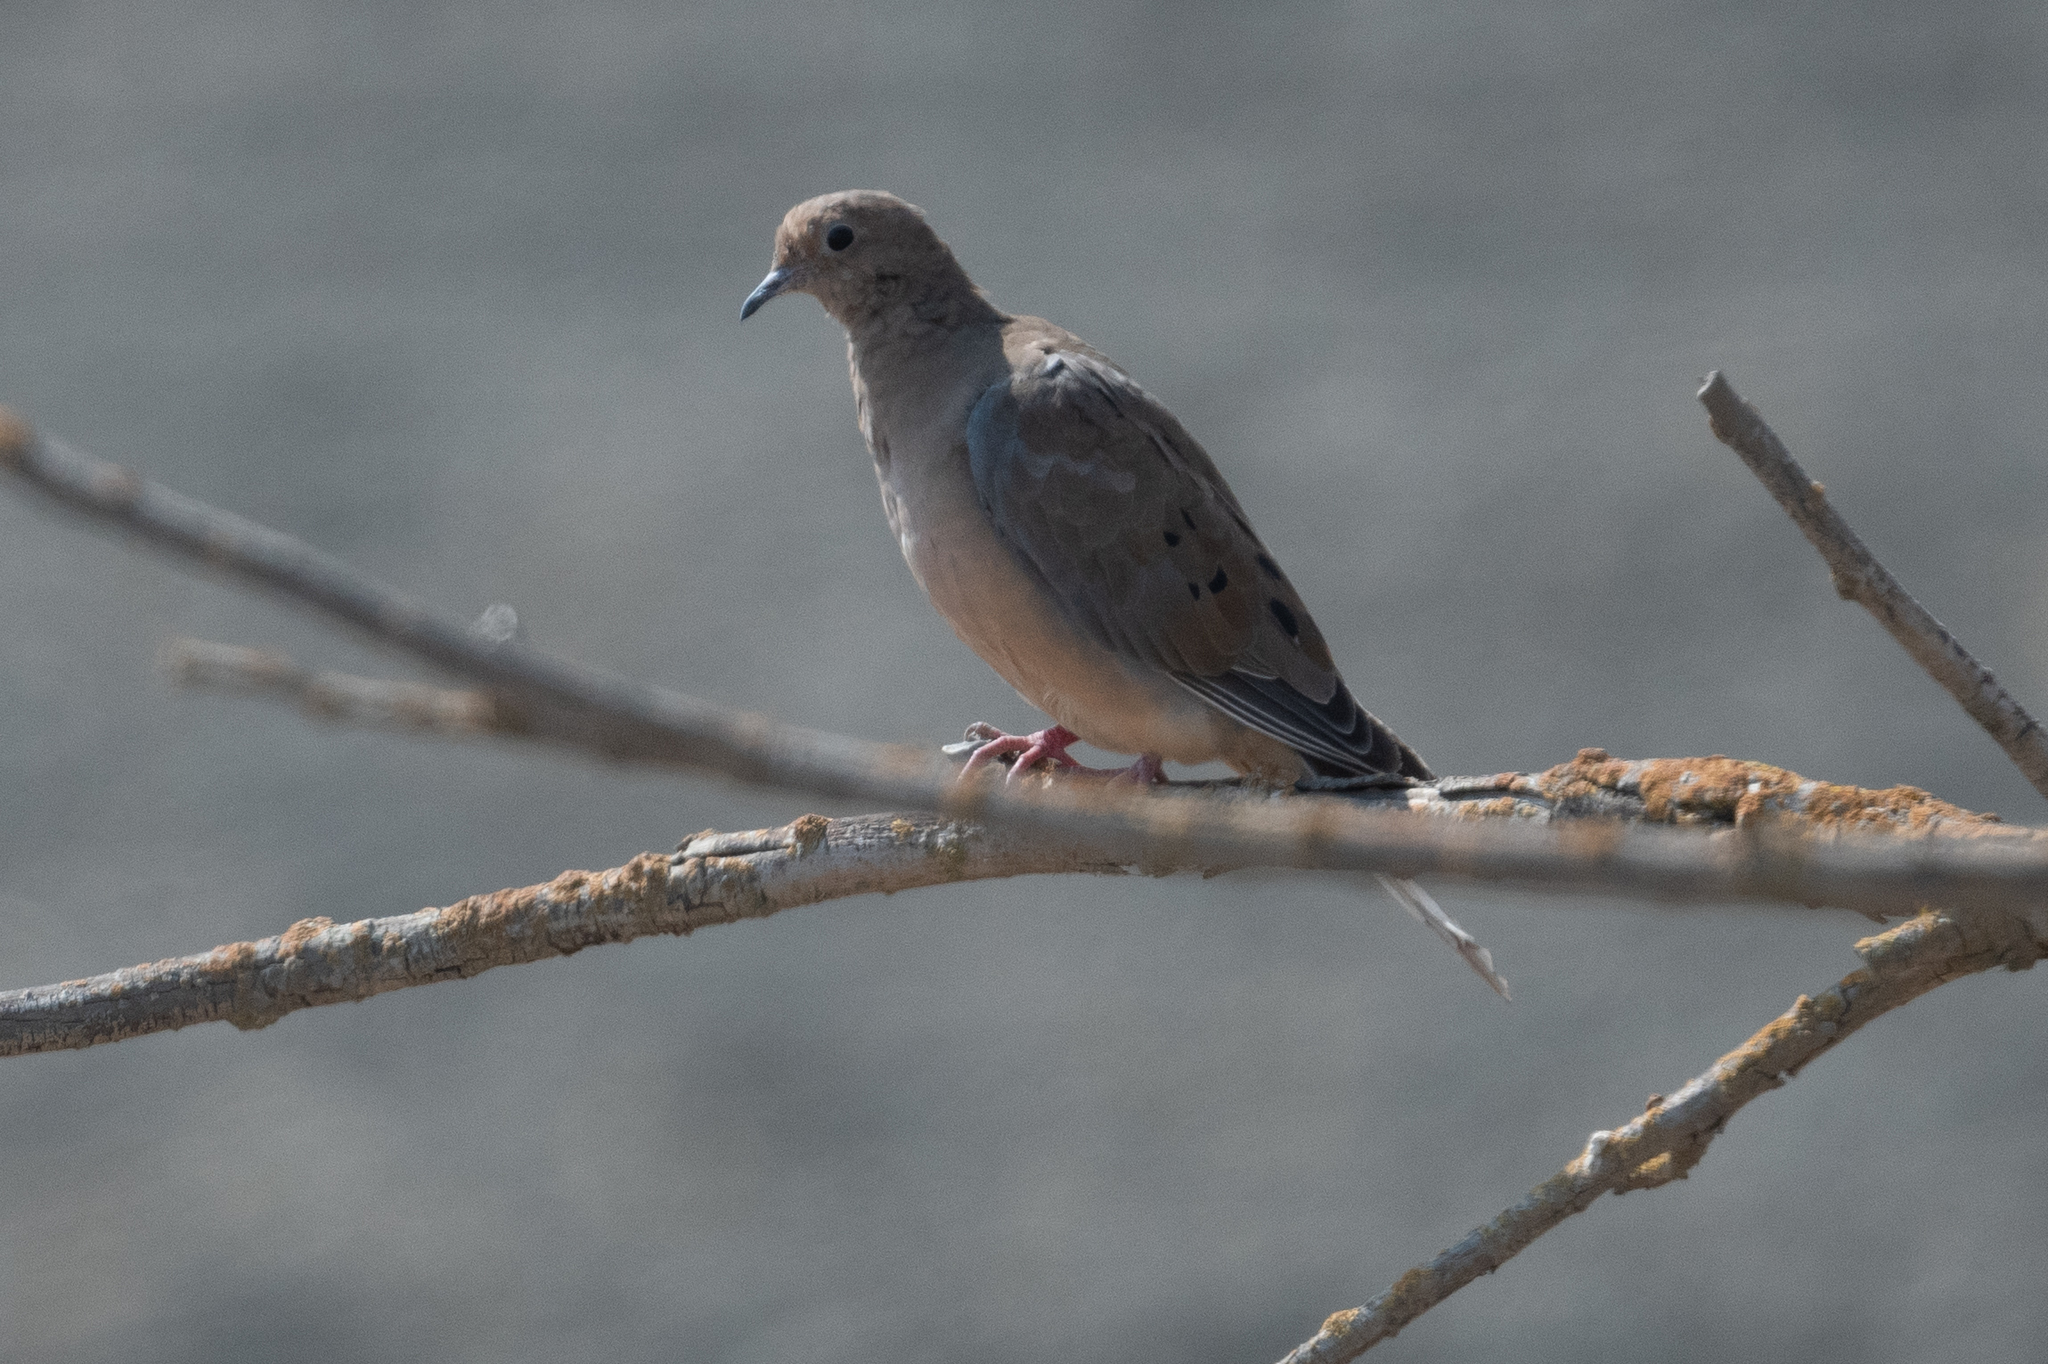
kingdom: Animalia
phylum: Chordata
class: Aves
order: Columbiformes
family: Columbidae
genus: Zenaida
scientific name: Zenaida macroura
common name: Mourning dove
